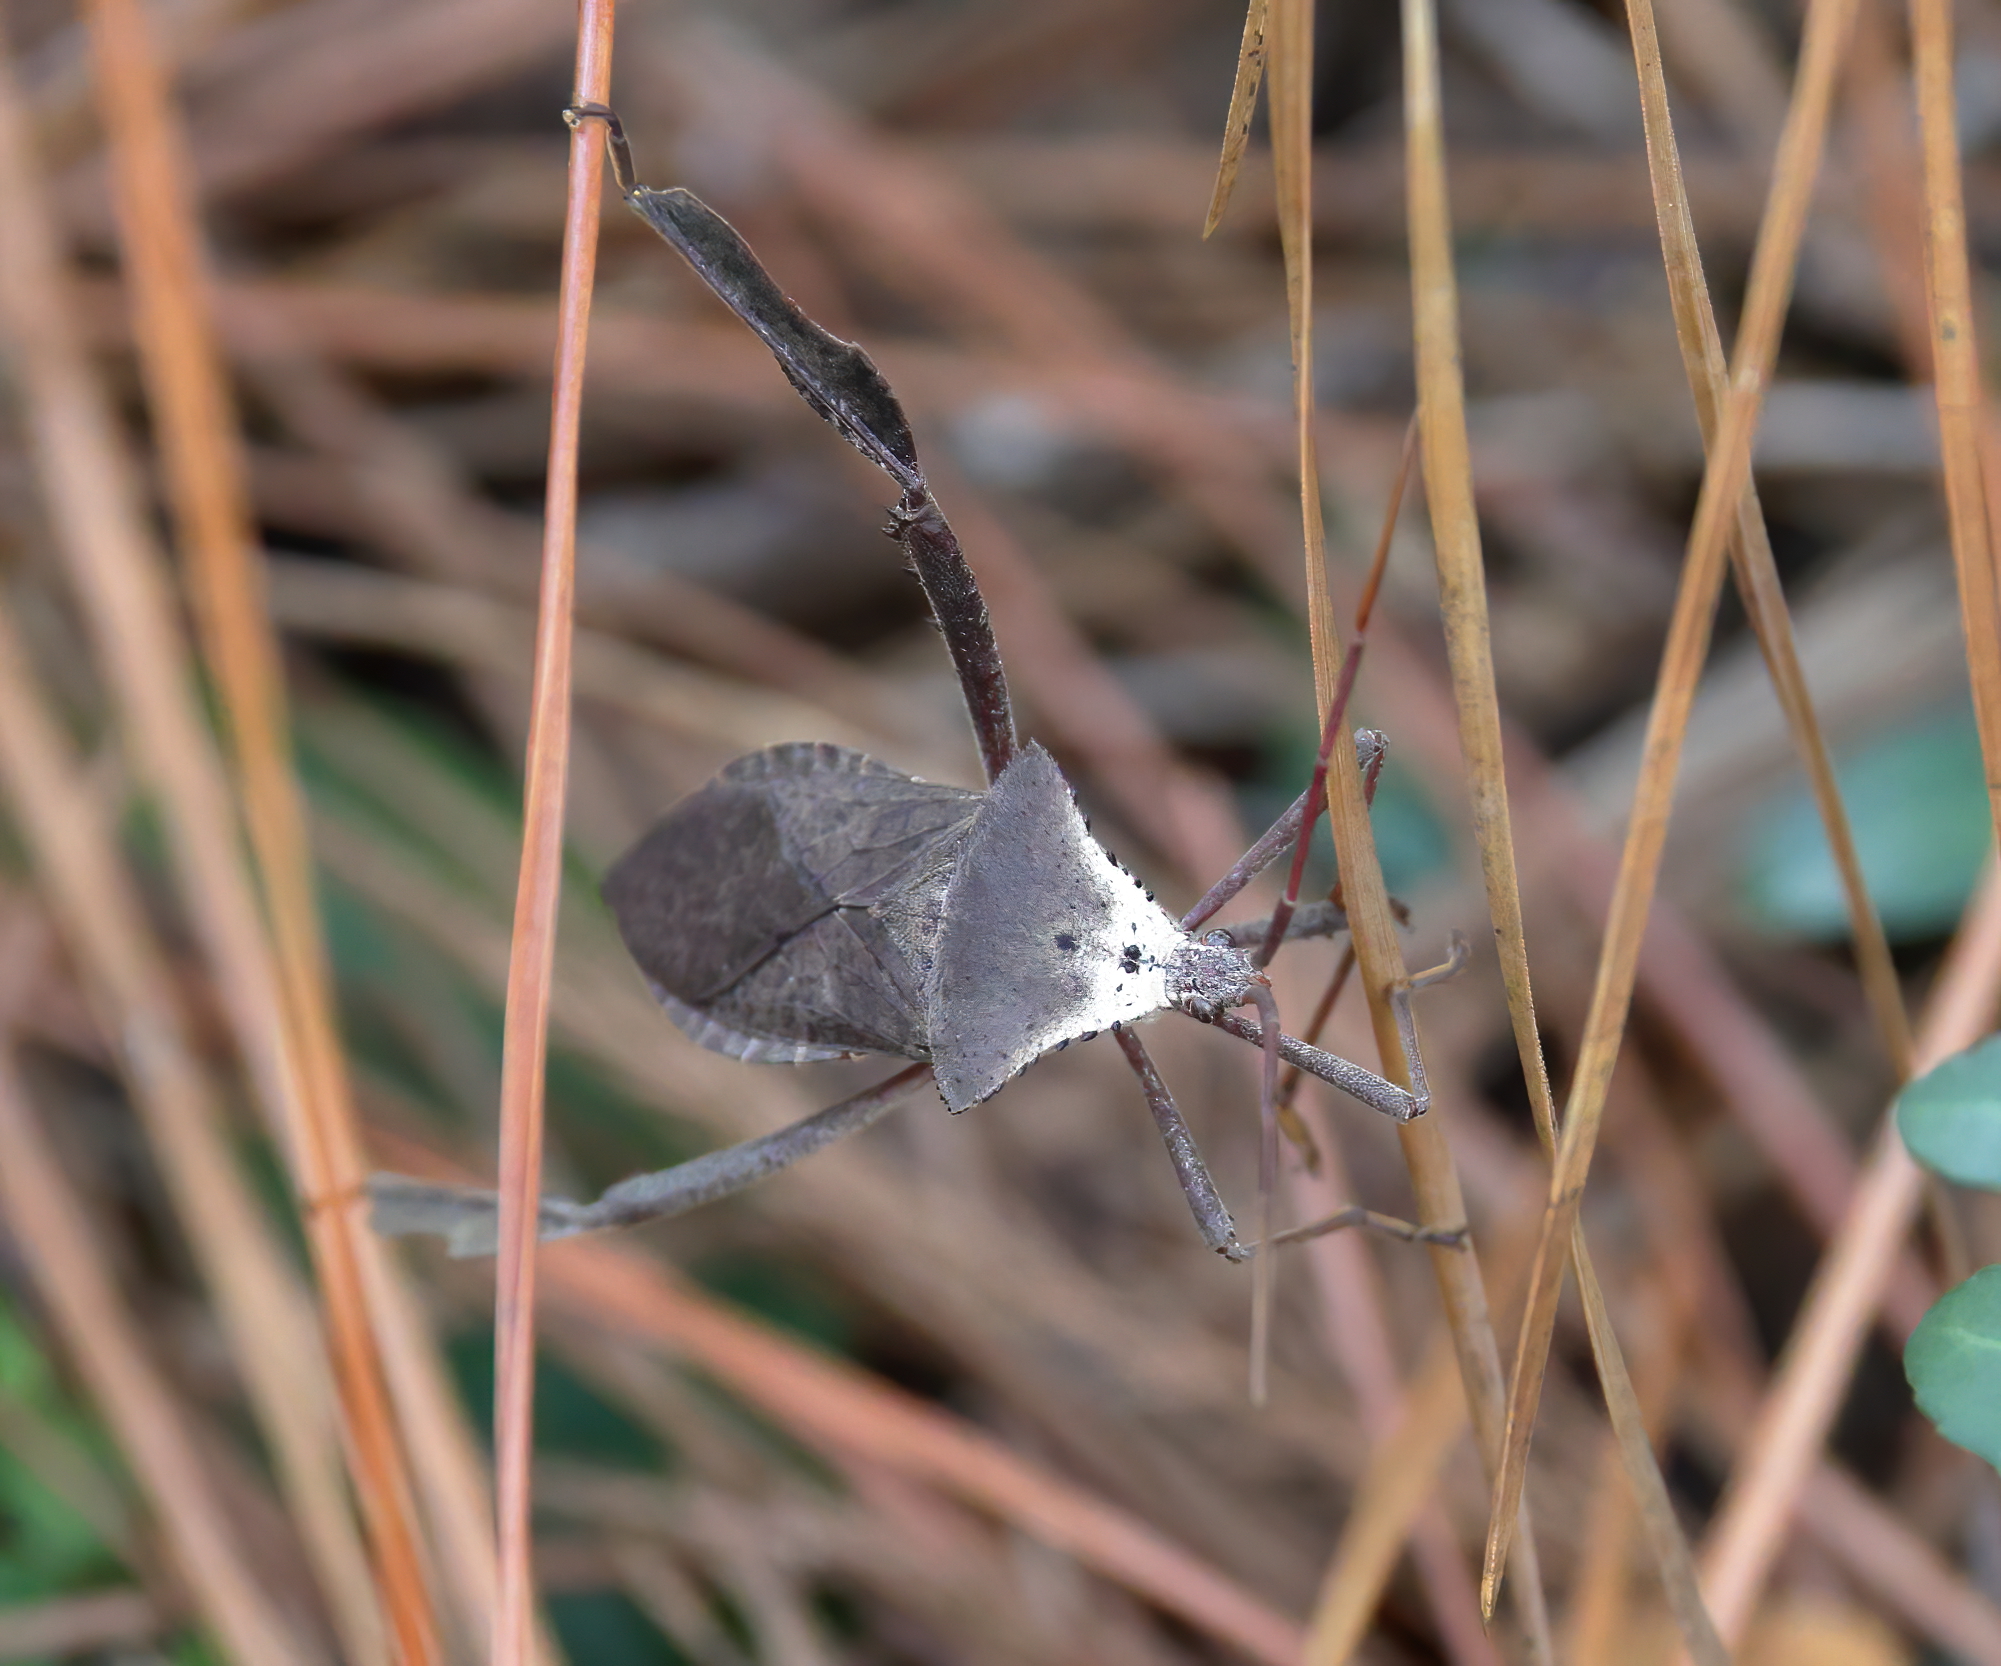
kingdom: Animalia
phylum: Arthropoda
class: Insecta
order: Hemiptera
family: Coreidae
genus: Acanthocephala
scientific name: Acanthocephala declivis
